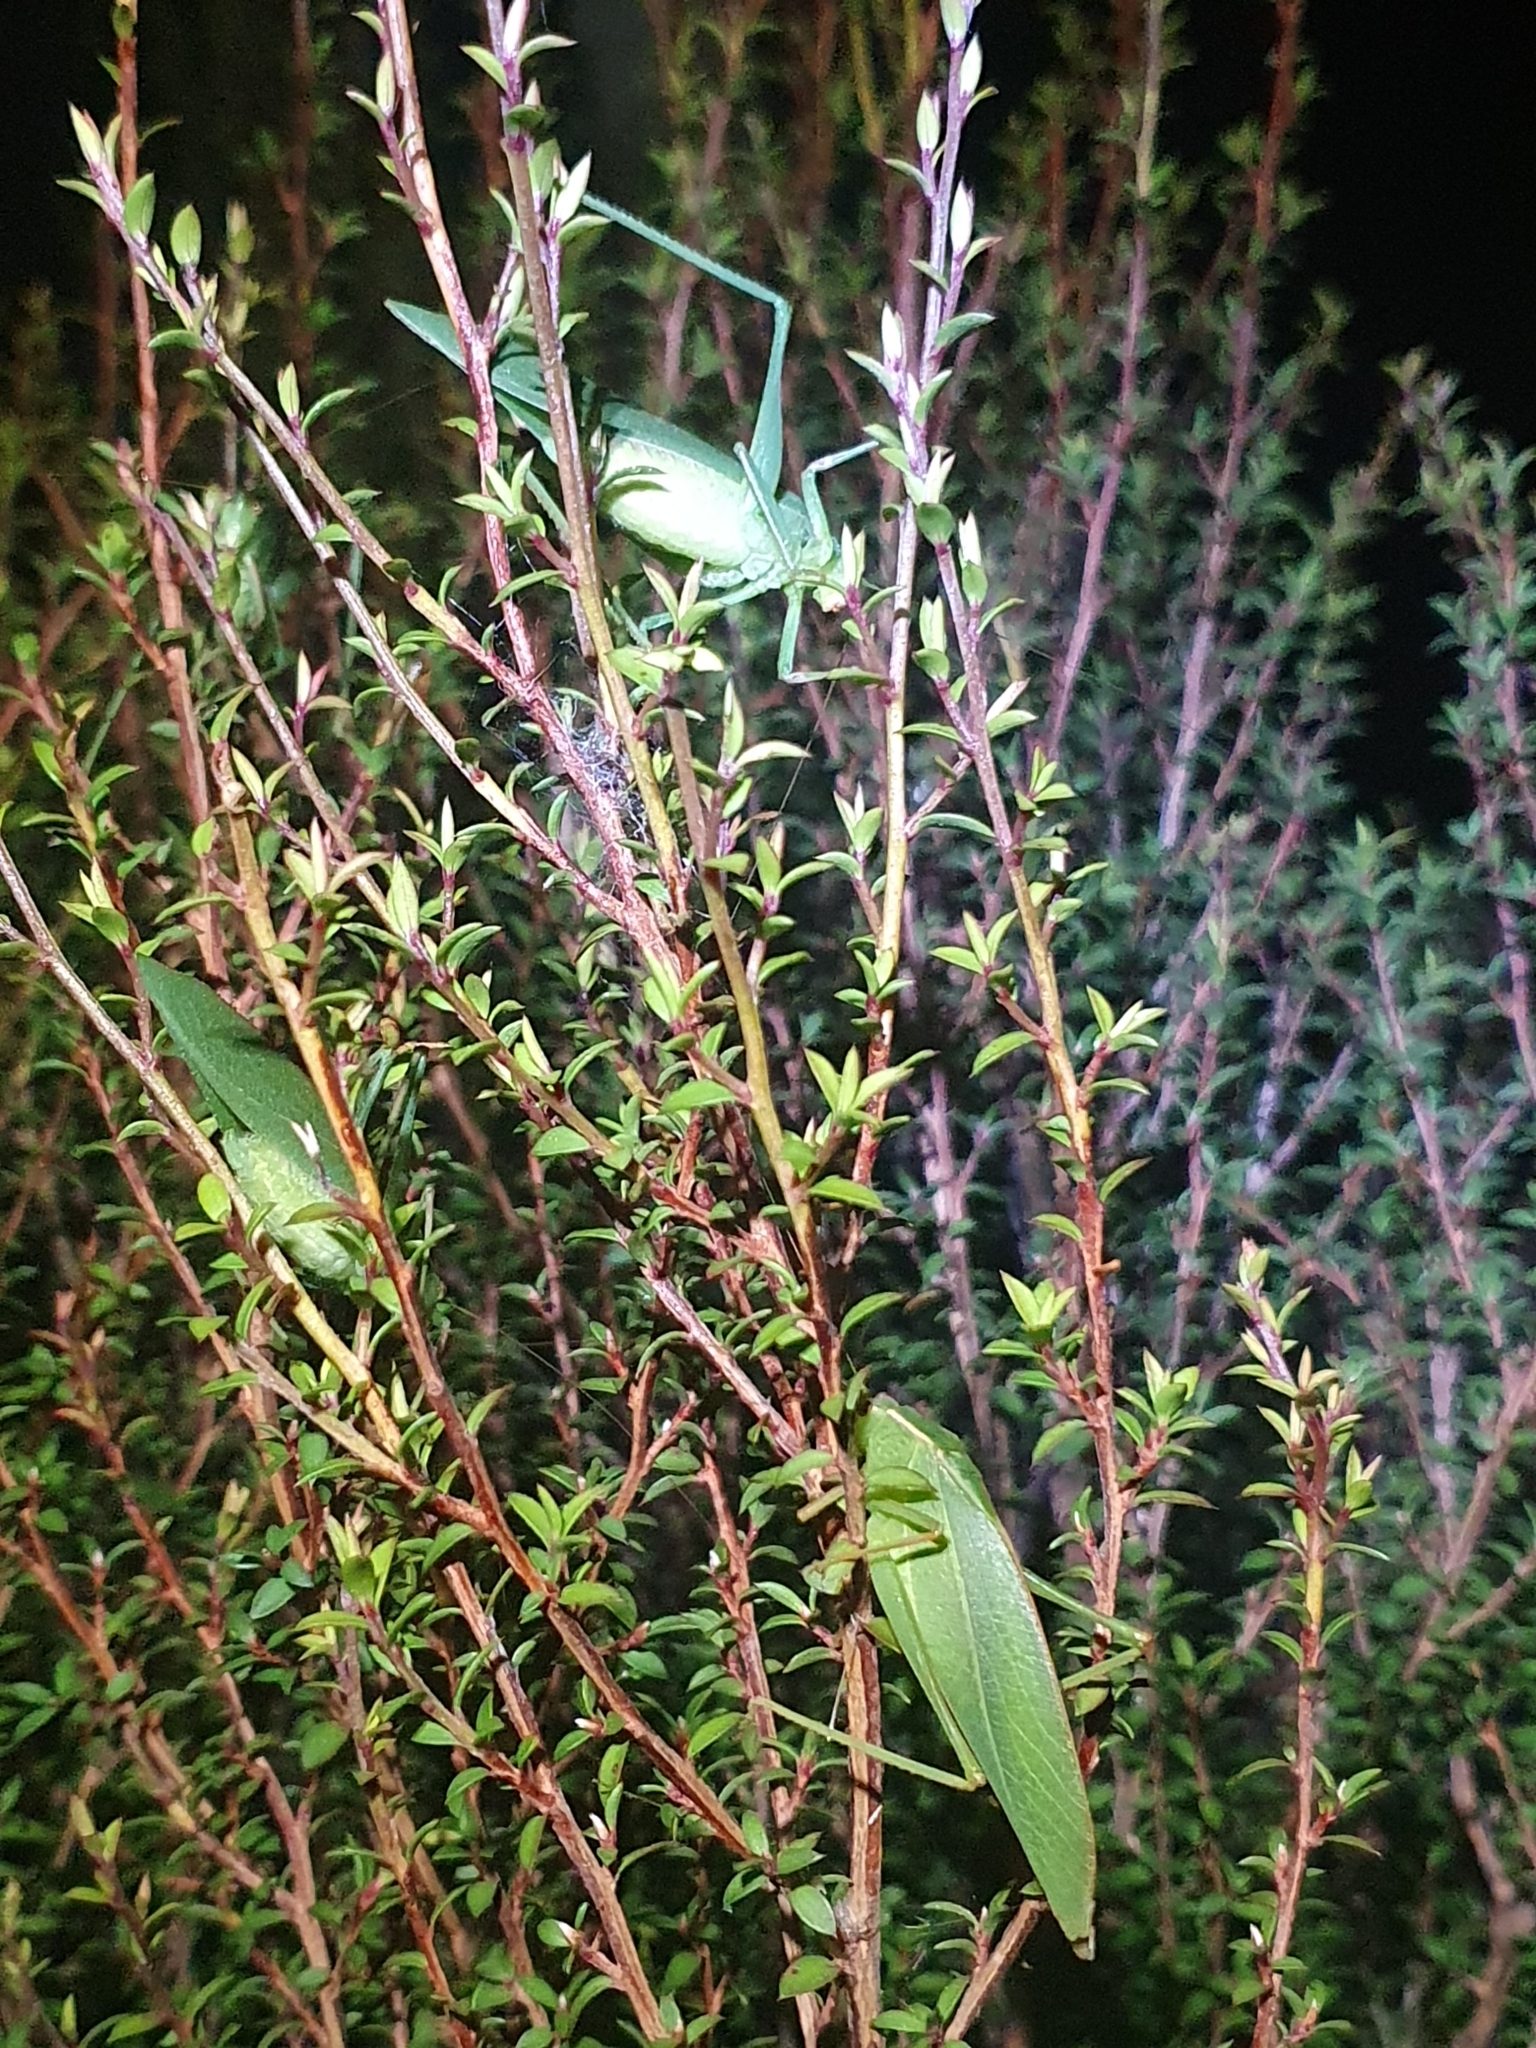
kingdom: Animalia
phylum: Arthropoda
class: Insecta
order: Orthoptera
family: Tettigoniidae
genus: Caedicia
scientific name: Caedicia simplex
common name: Common garden katydid
